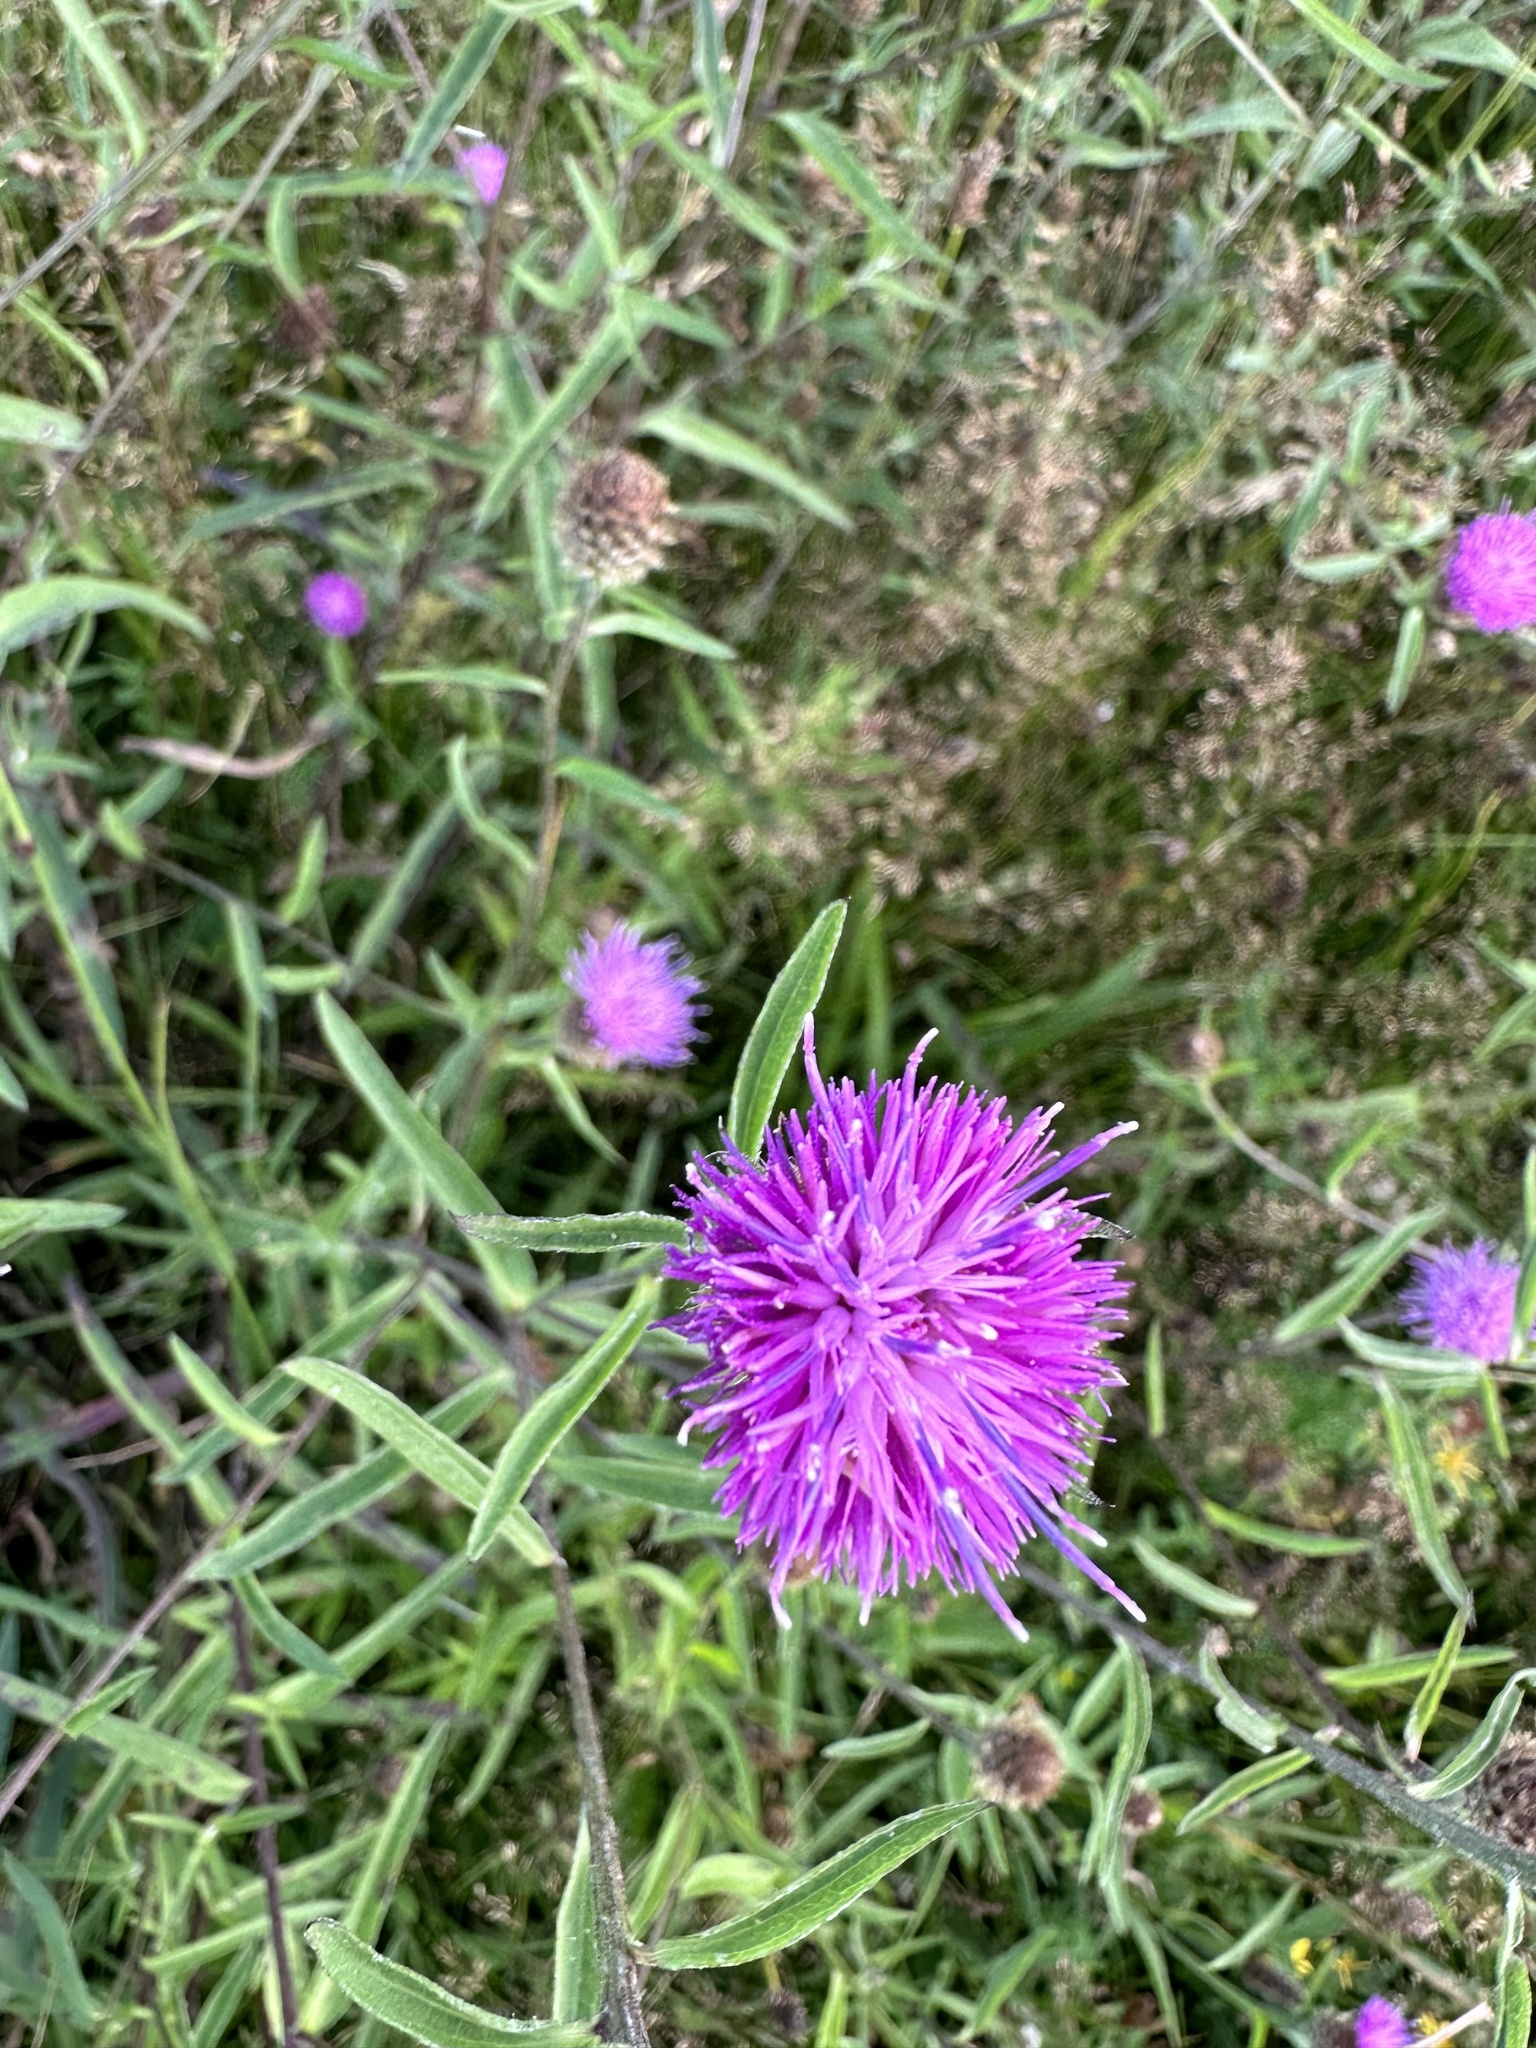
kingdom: Plantae
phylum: Tracheophyta
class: Magnoliopsida
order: Asterales
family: Asteraceae
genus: Centaurea
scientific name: Centaurea nigra
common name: Lesser knapweed
